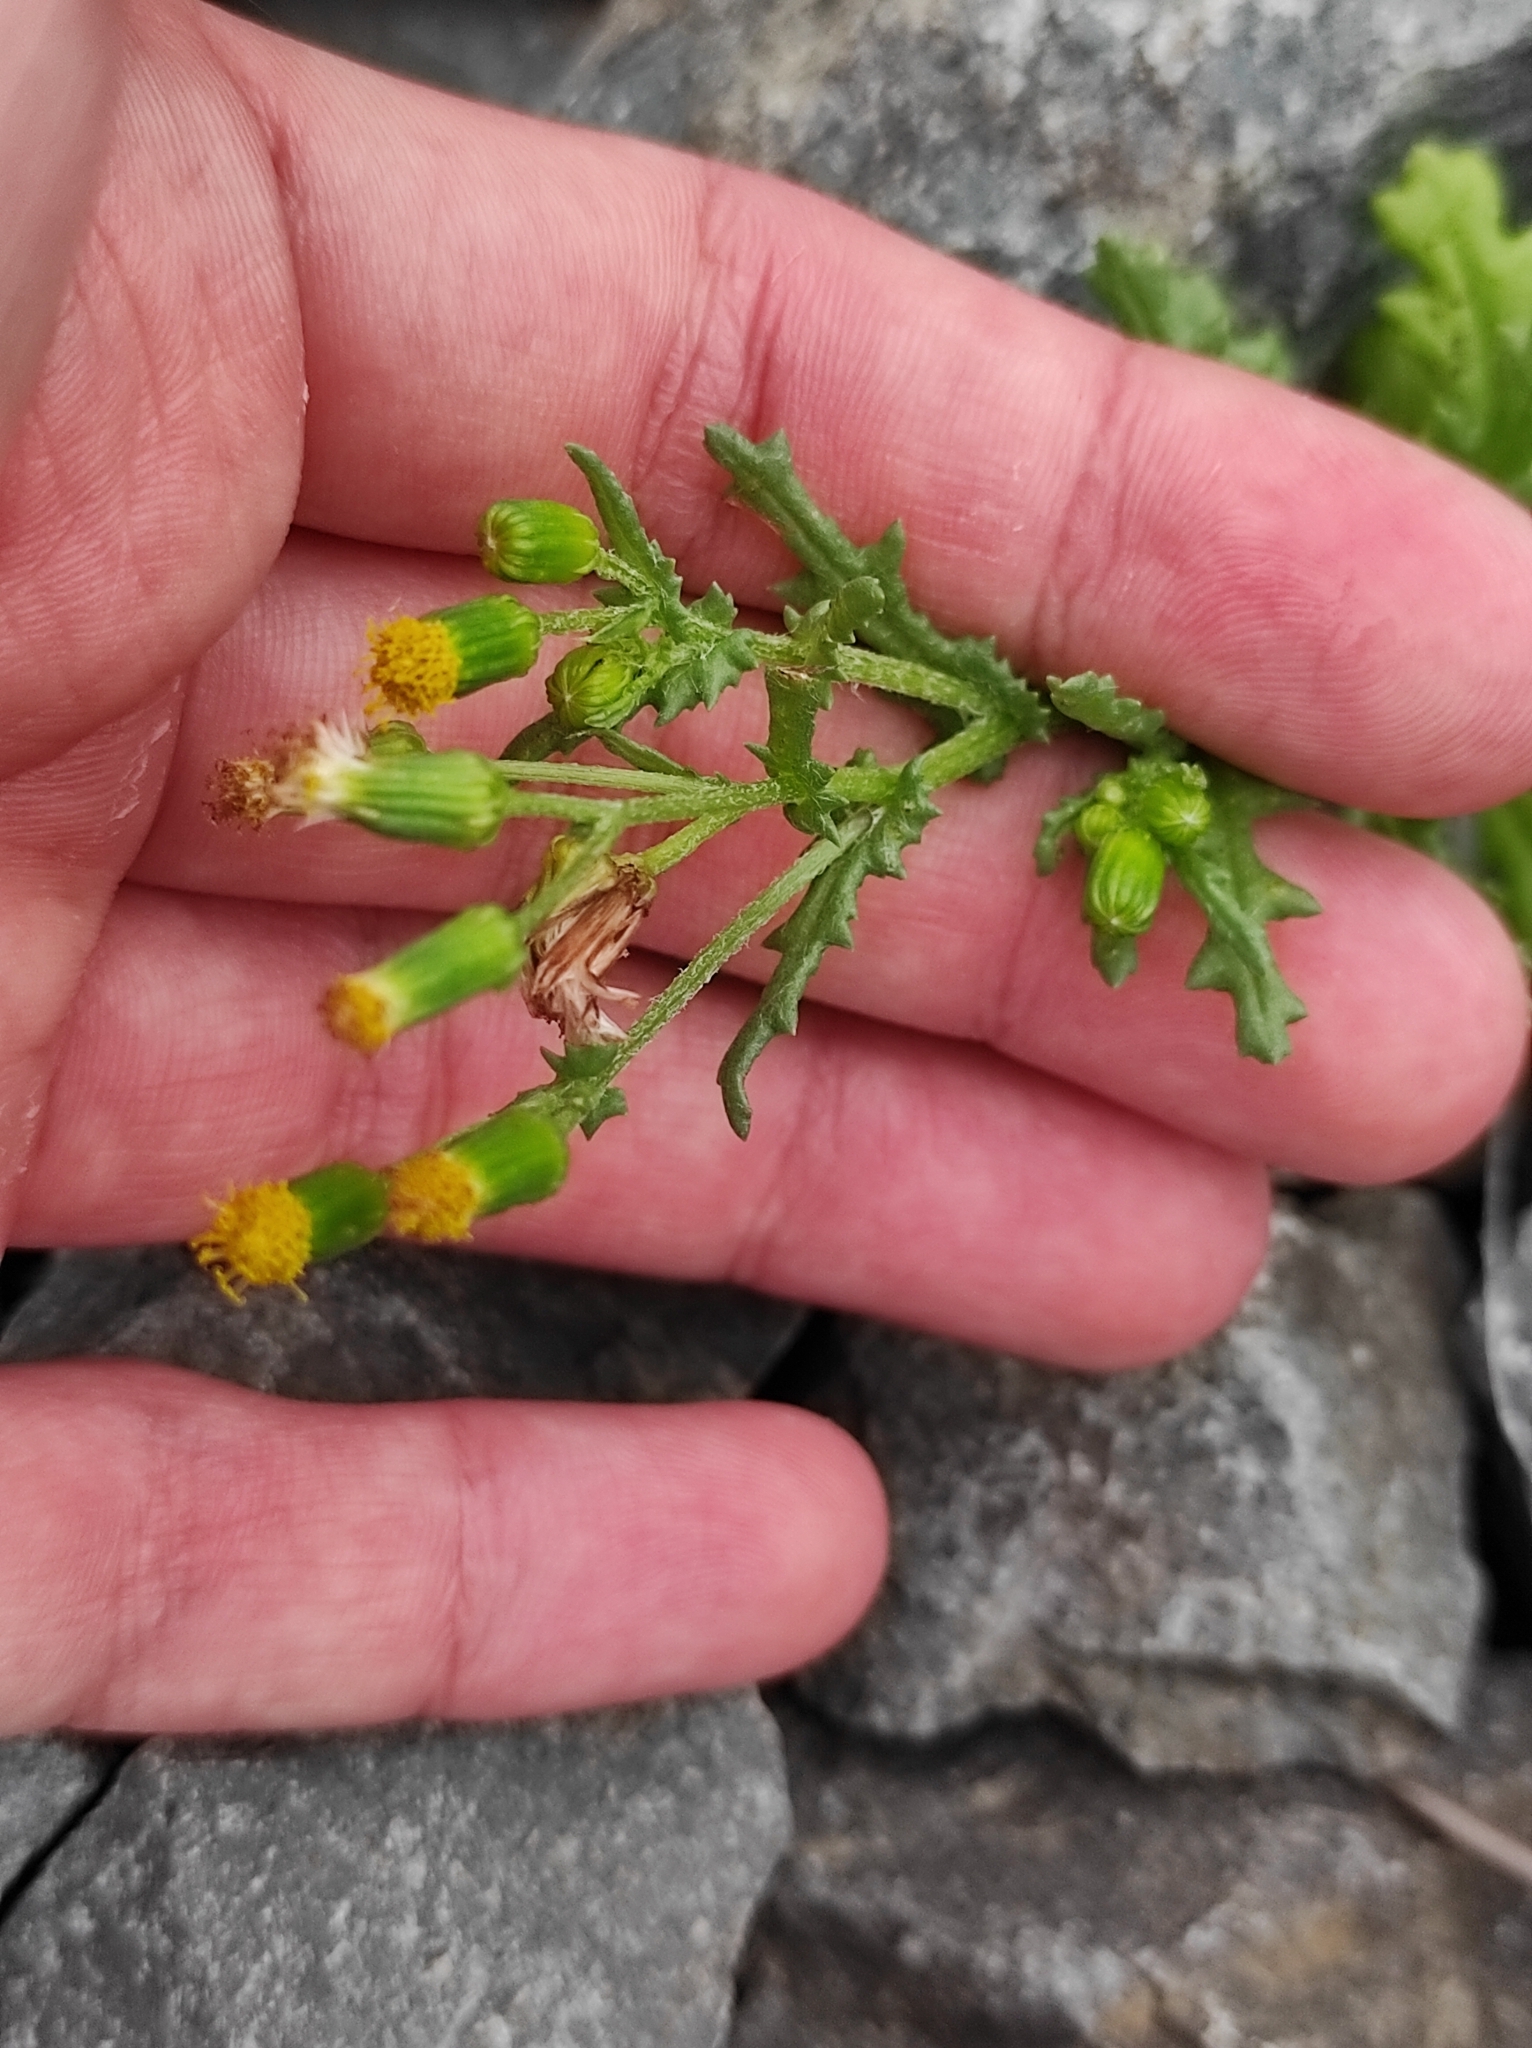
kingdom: Plantae
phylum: Tracheophyta
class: Magnoliopsida
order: Asterales
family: Asteraceae
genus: Senecio
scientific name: Senecio vulgaris
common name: Old-man-in-the-spring
